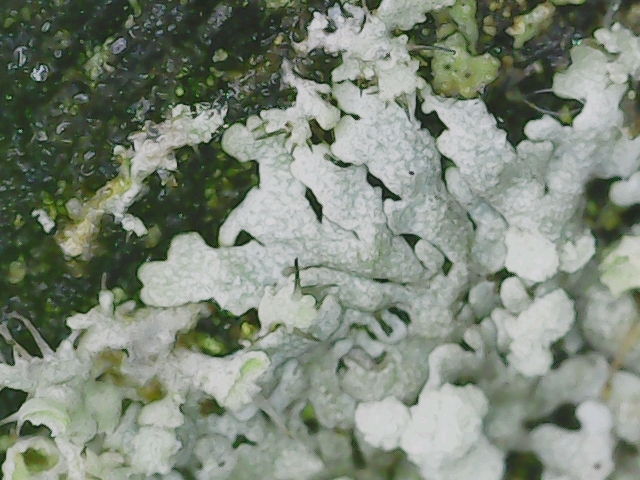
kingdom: Fungi
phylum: Ascomycota
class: Lecanoromycetes
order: Caliciales
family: Physciaceae
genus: Physcia
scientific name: Physcia caesia
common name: Blue-gray rosette lichen
